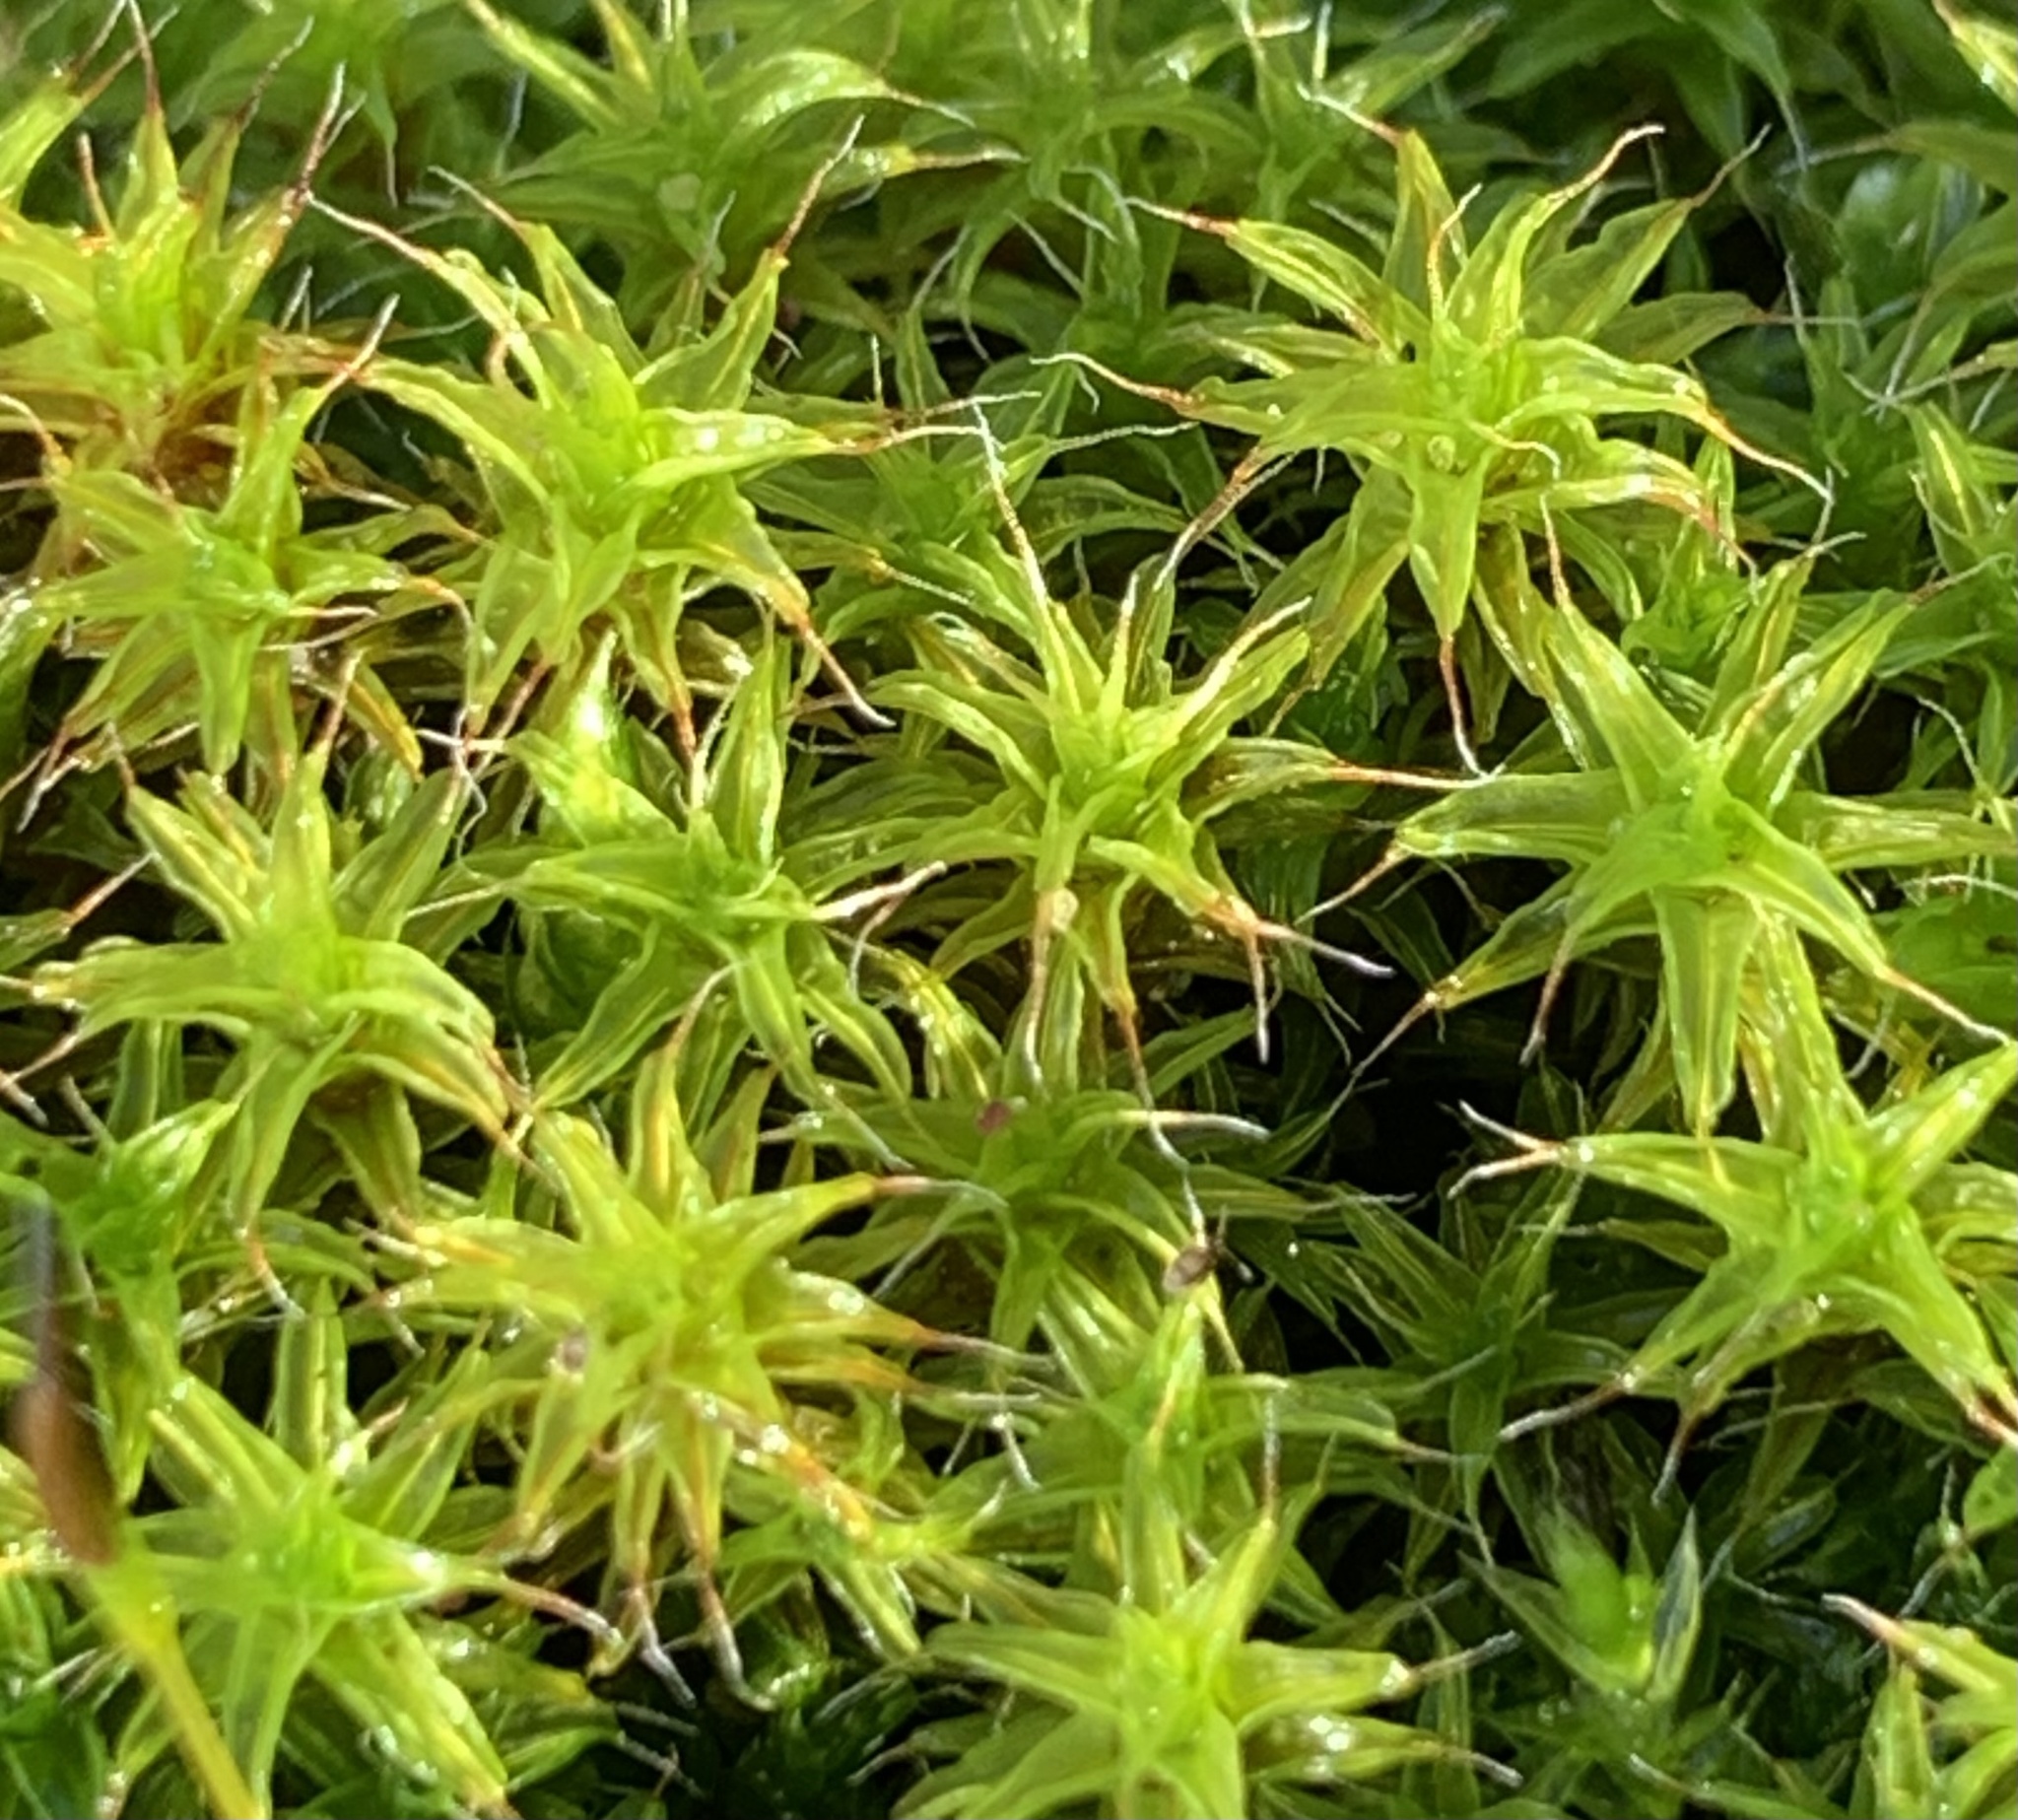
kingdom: Plantae
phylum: Bryophyta
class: Bryopsida
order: Pottiales
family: Pottiaceae
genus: Syntrichia
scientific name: Syntrichia ruralis
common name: Sidewalk screw moss
